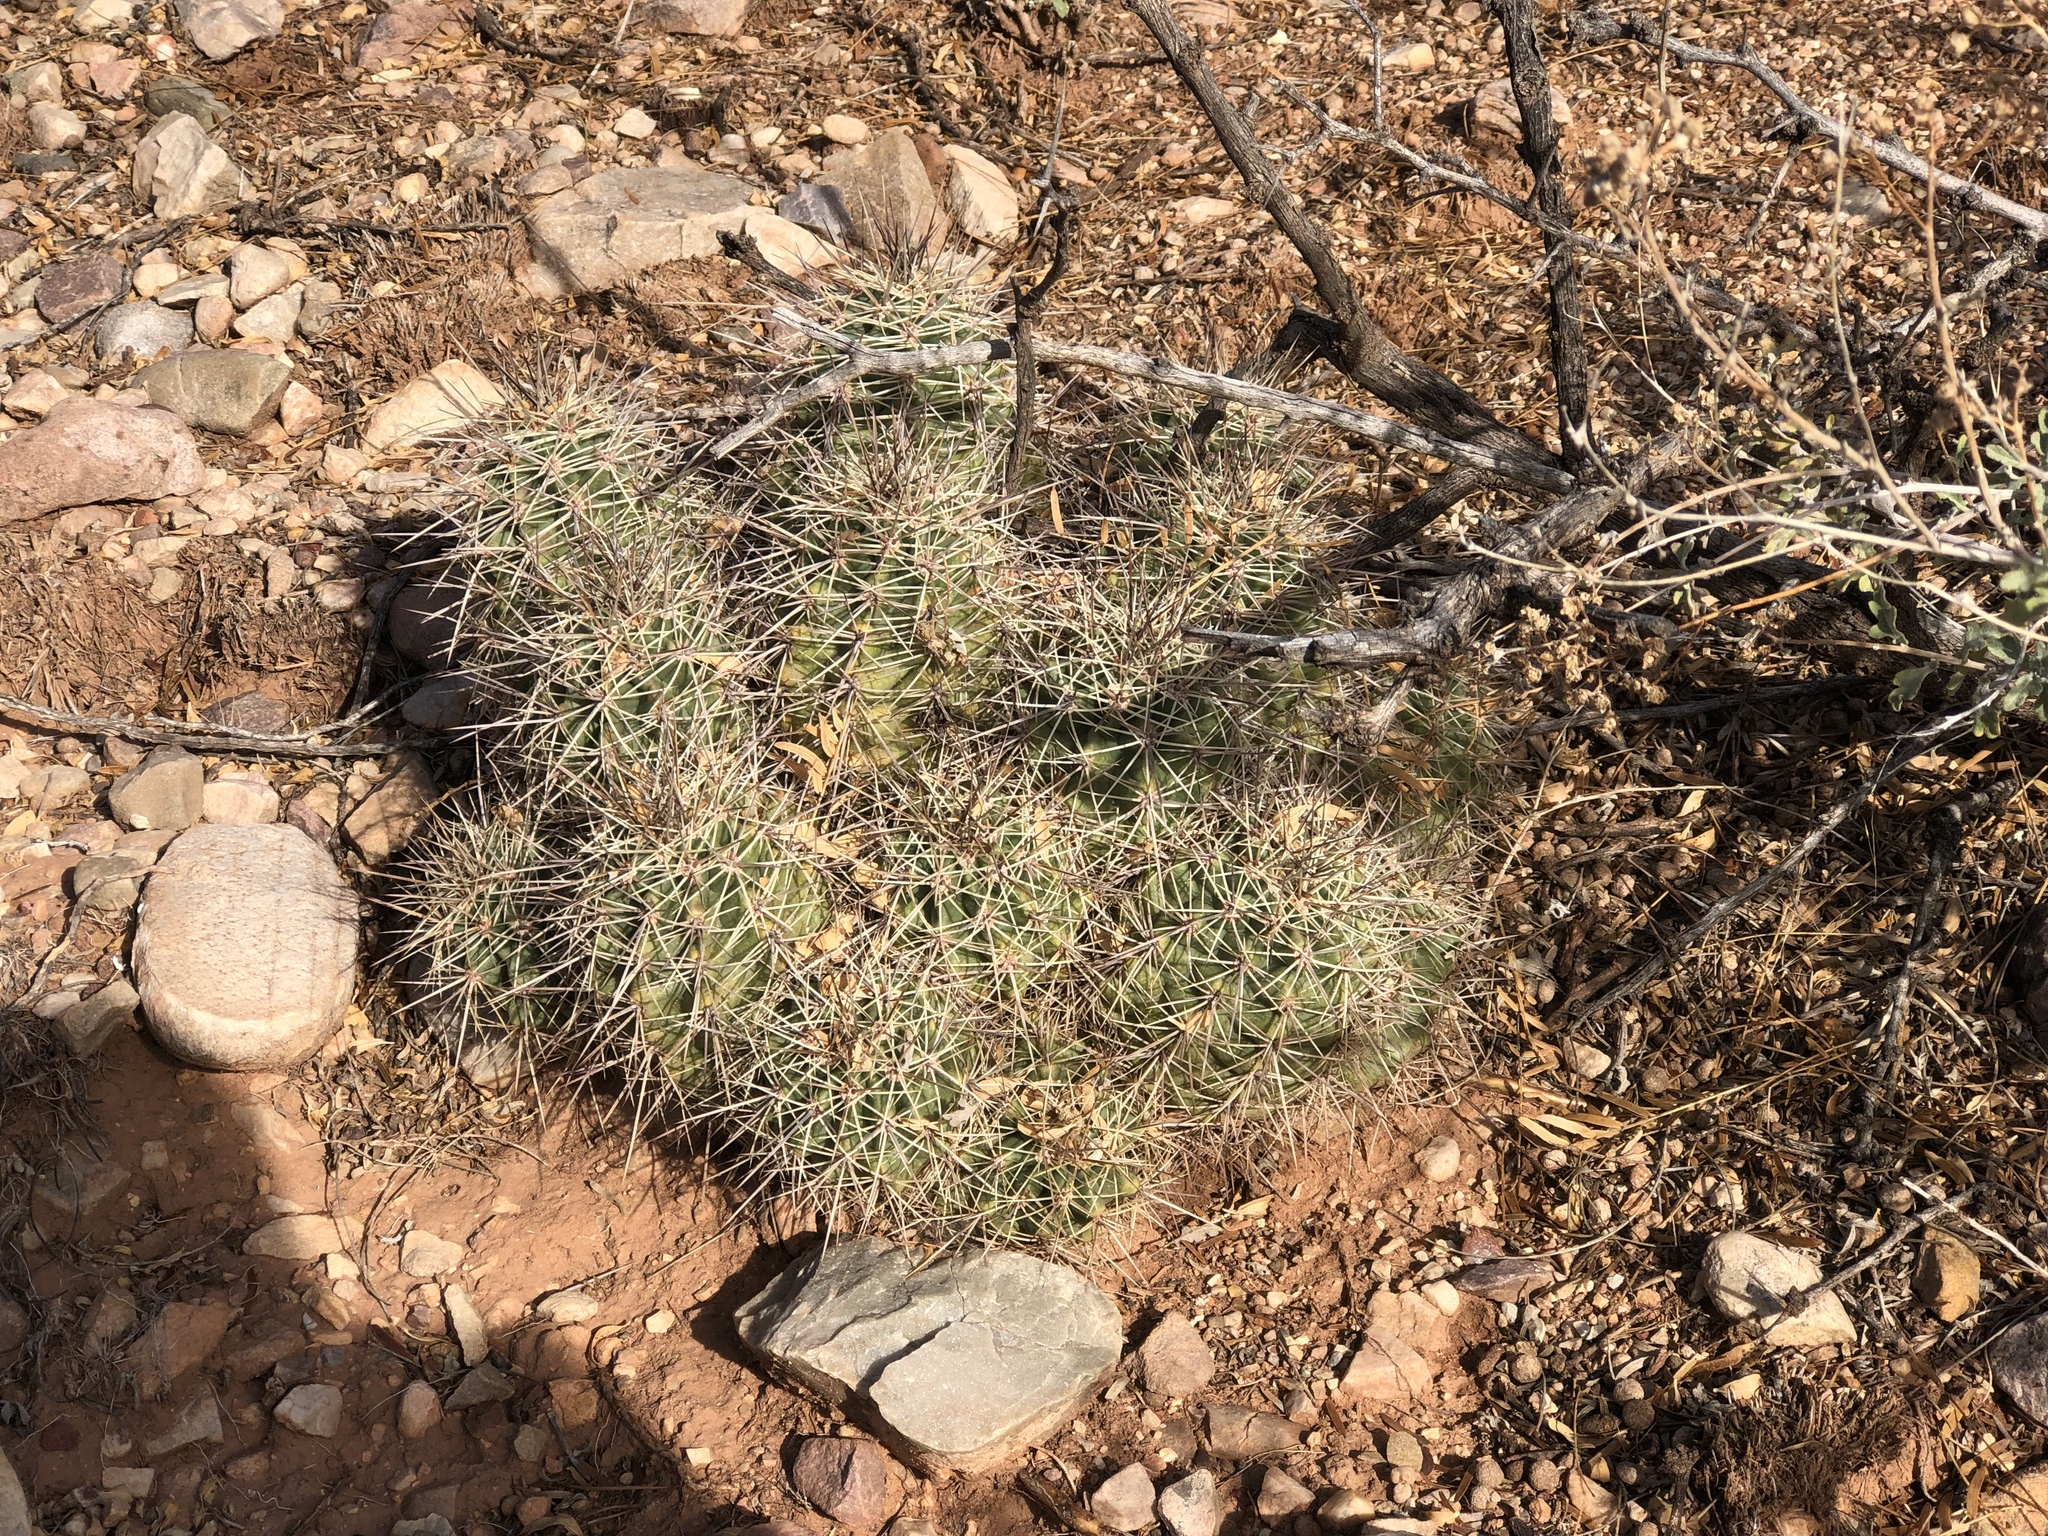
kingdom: Plantae
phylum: Tracheophyta
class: Magnoliopsida
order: Caryophyllales
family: Cactaceae
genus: Echinocereus
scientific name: Echinocereus coccineus
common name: Scarlet hedgehog cactus
